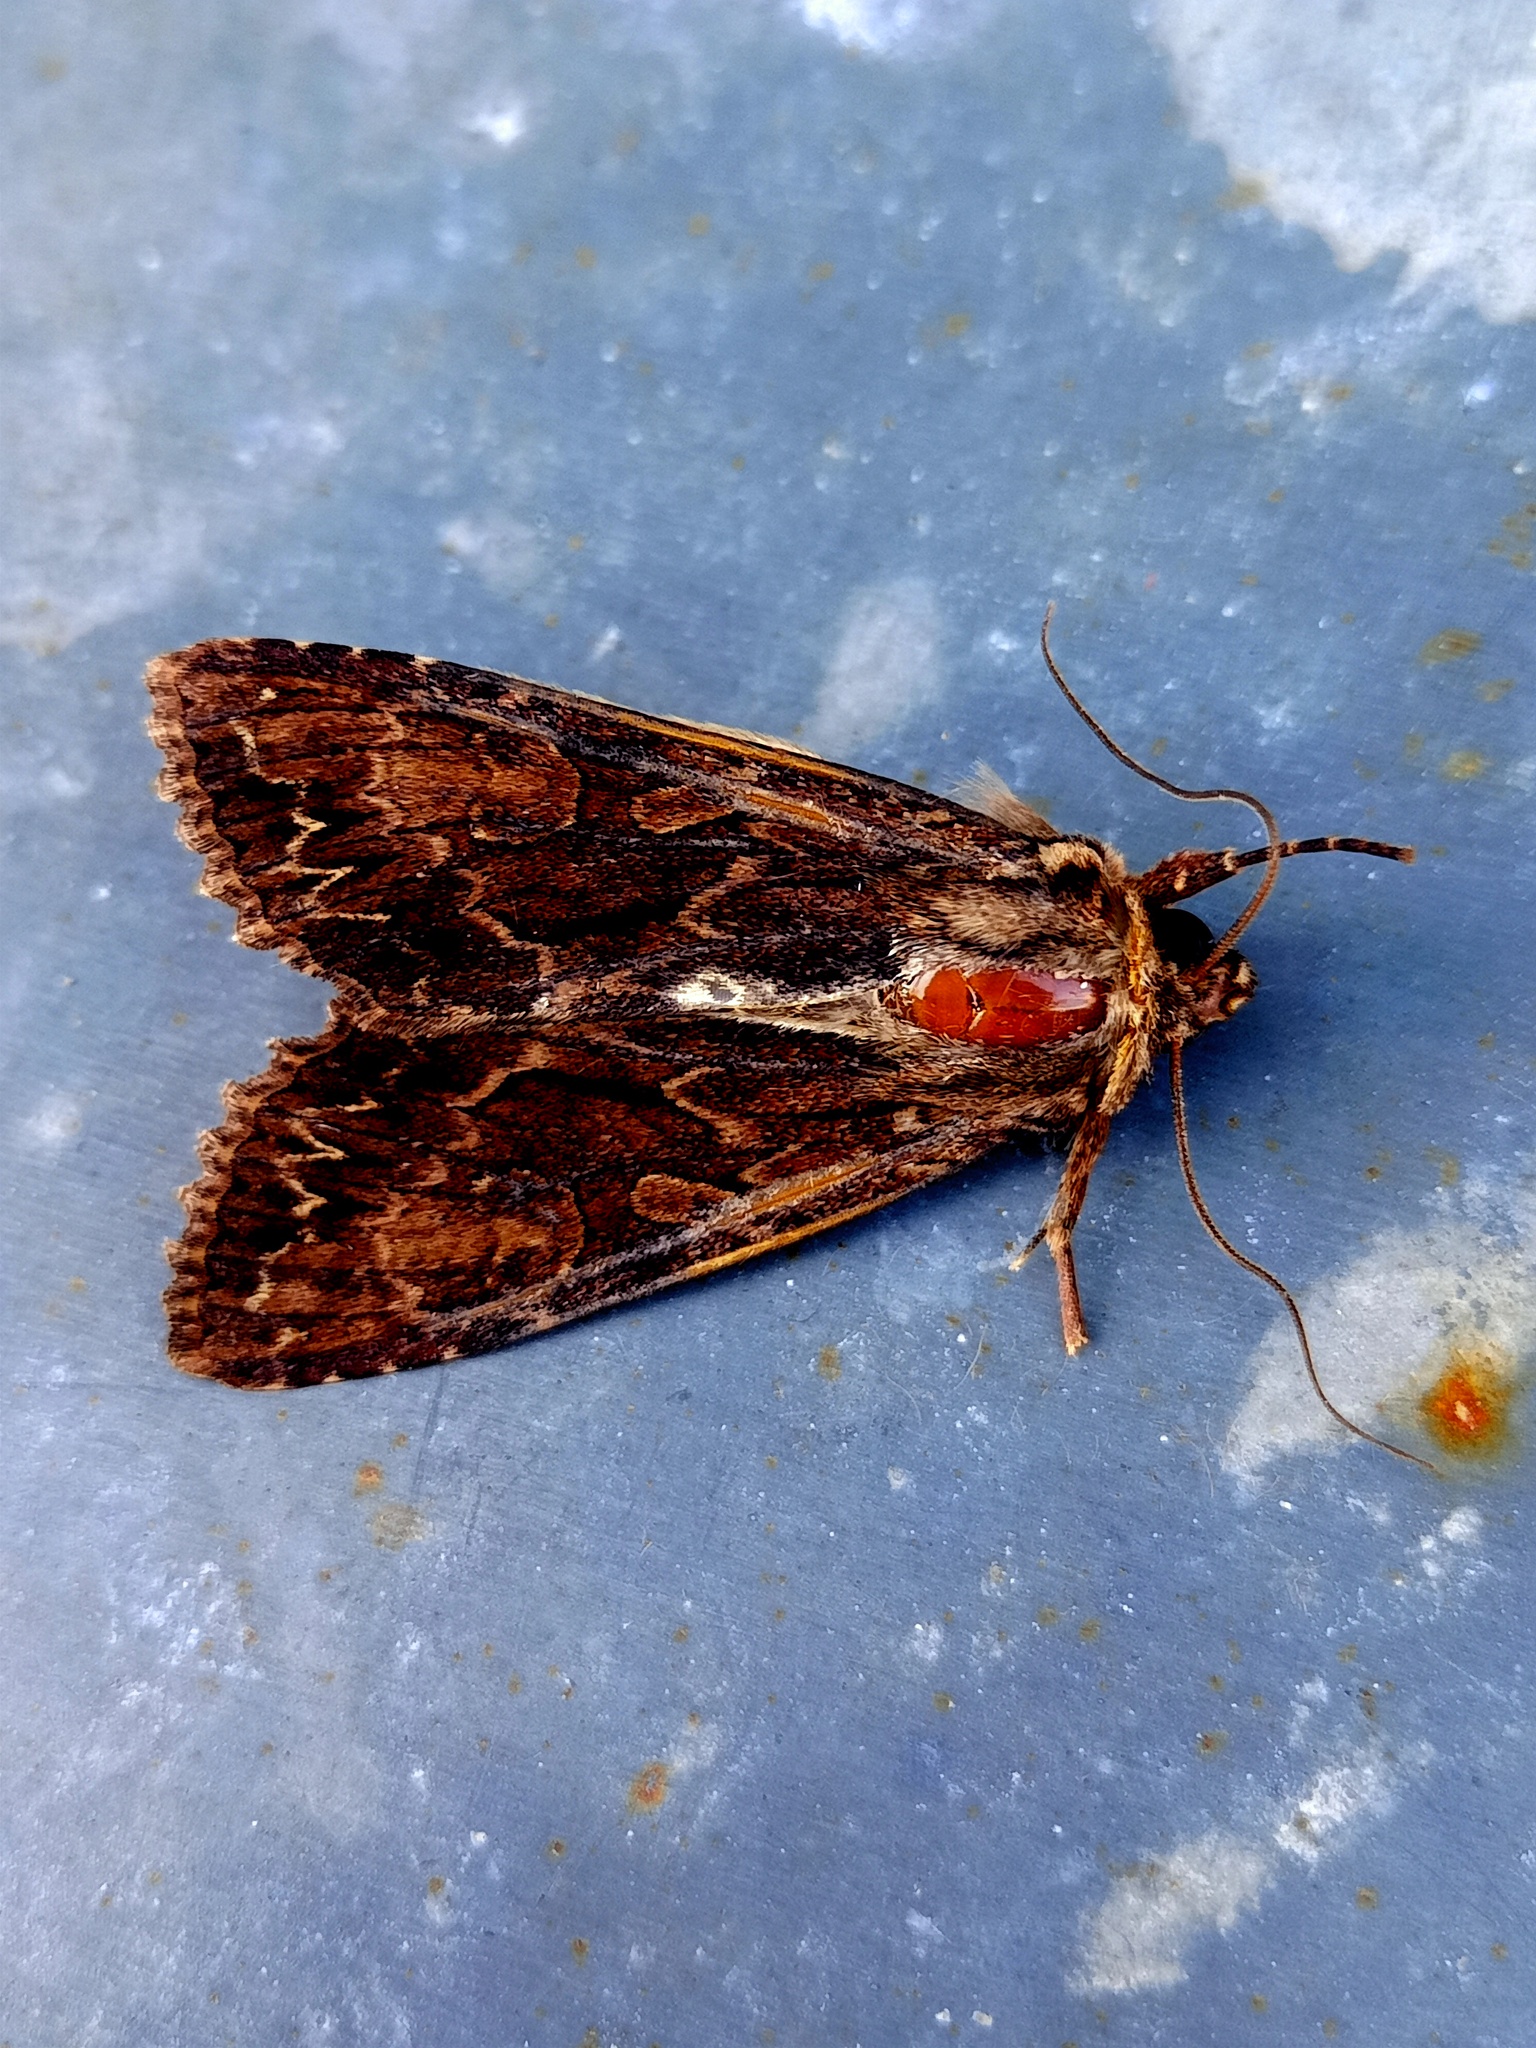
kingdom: Animalia
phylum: Arthropoda
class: Insecta
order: Lepidoptera
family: Noctuidae
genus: Apamea
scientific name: Apamea monoglypha
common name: Dark arches
